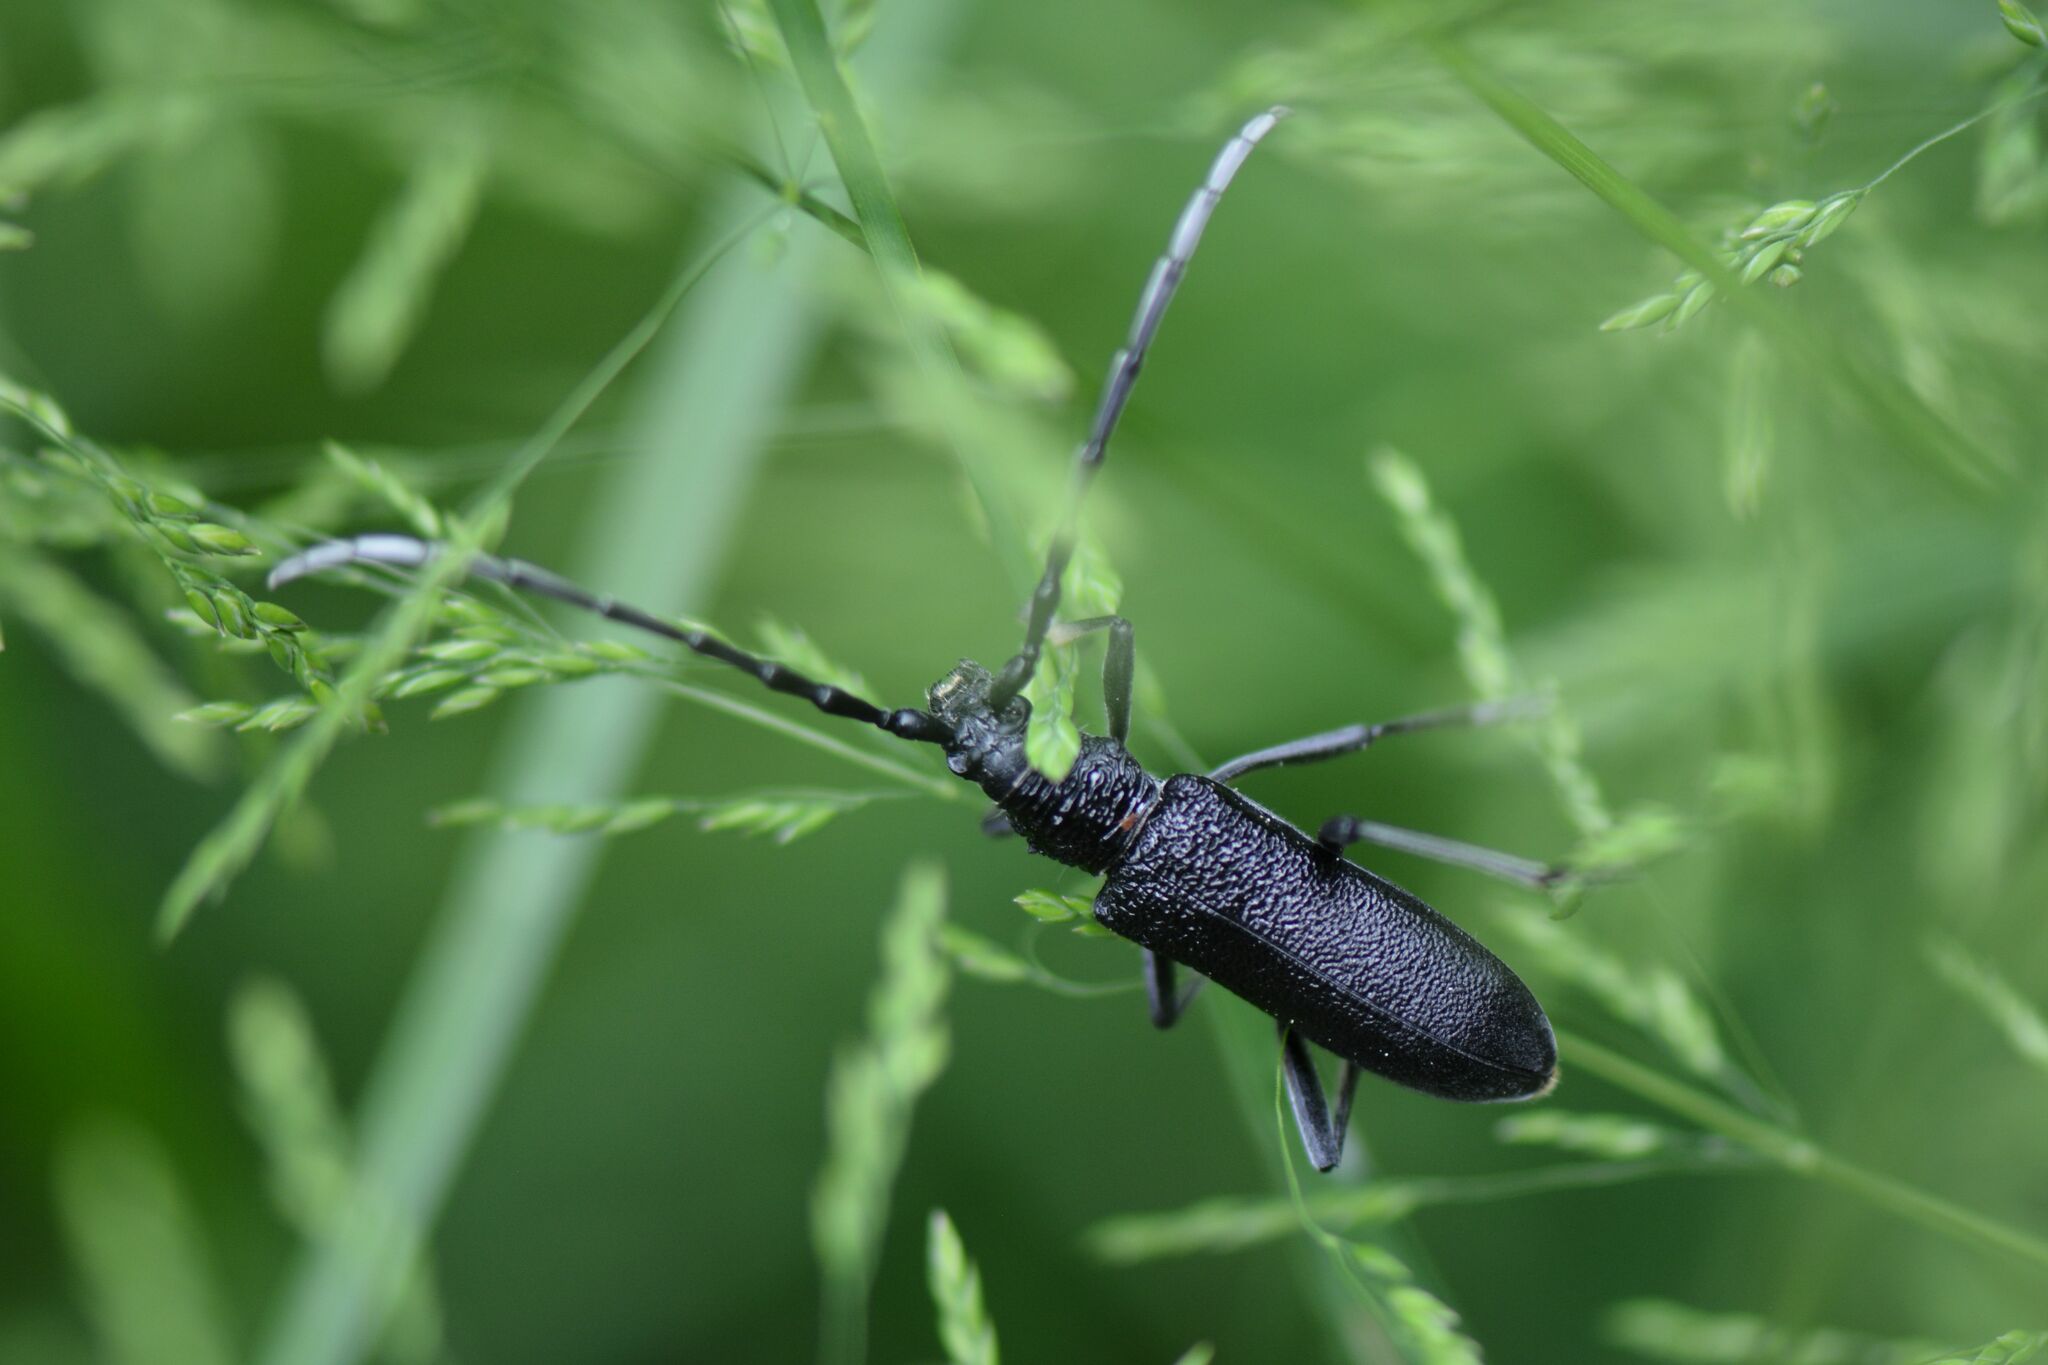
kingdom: Animalia
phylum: Arthropoda
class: Insecta
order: Coleoptera
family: Cerambycidae
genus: Cerambyx
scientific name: Cerambyx scopolii
